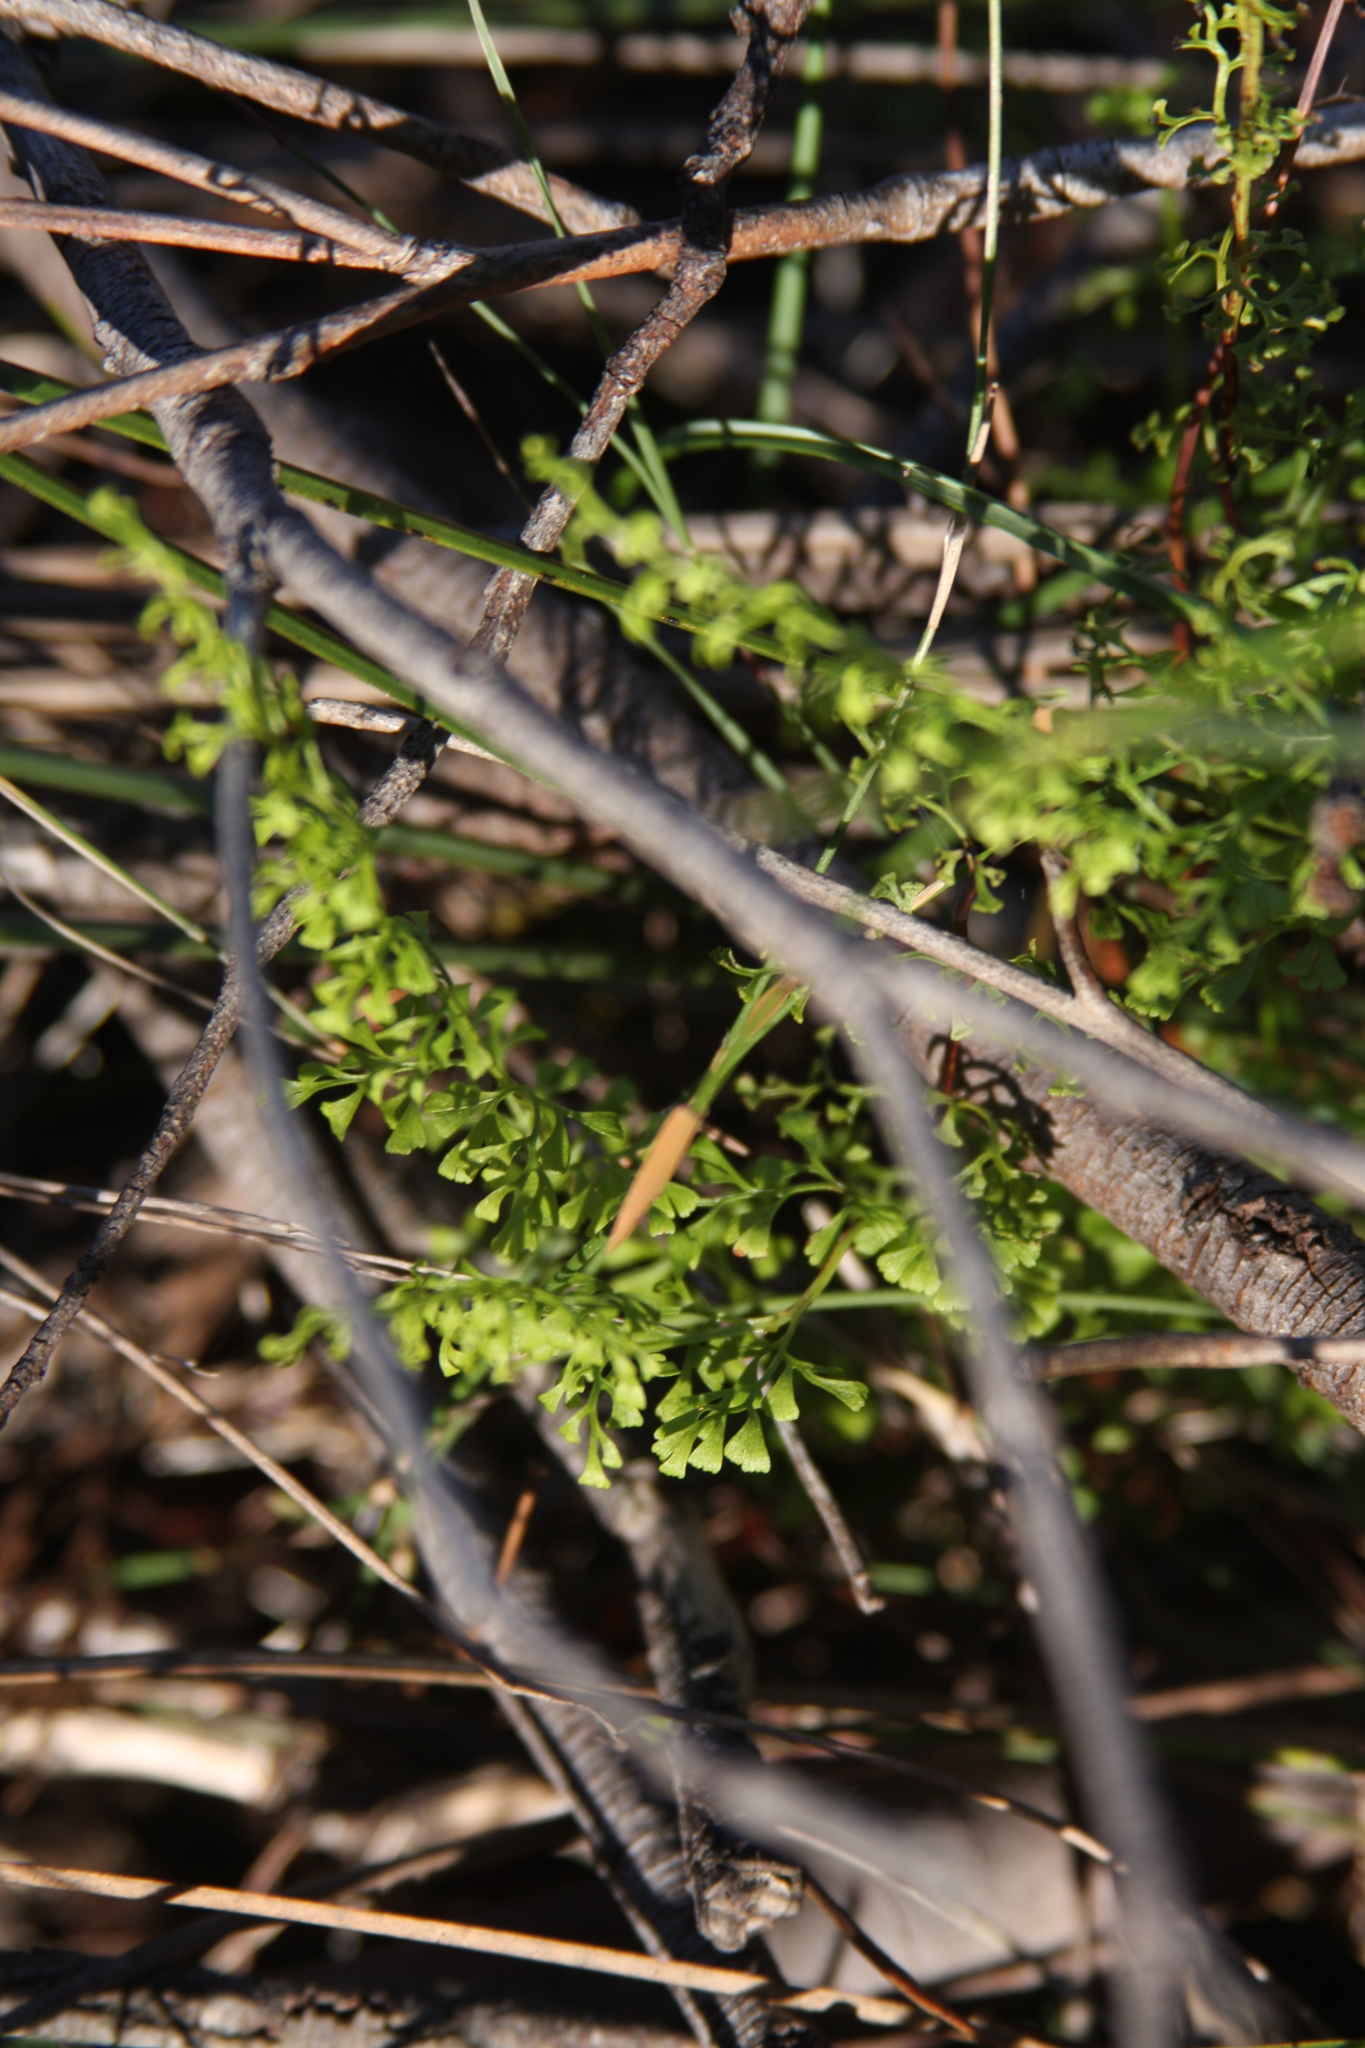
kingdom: Plantae
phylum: Tracheophyta
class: Polypodiopsida
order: Polypodiales
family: Lindsaeaceae
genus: Lindsaea
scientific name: Lindsaea microphylla
